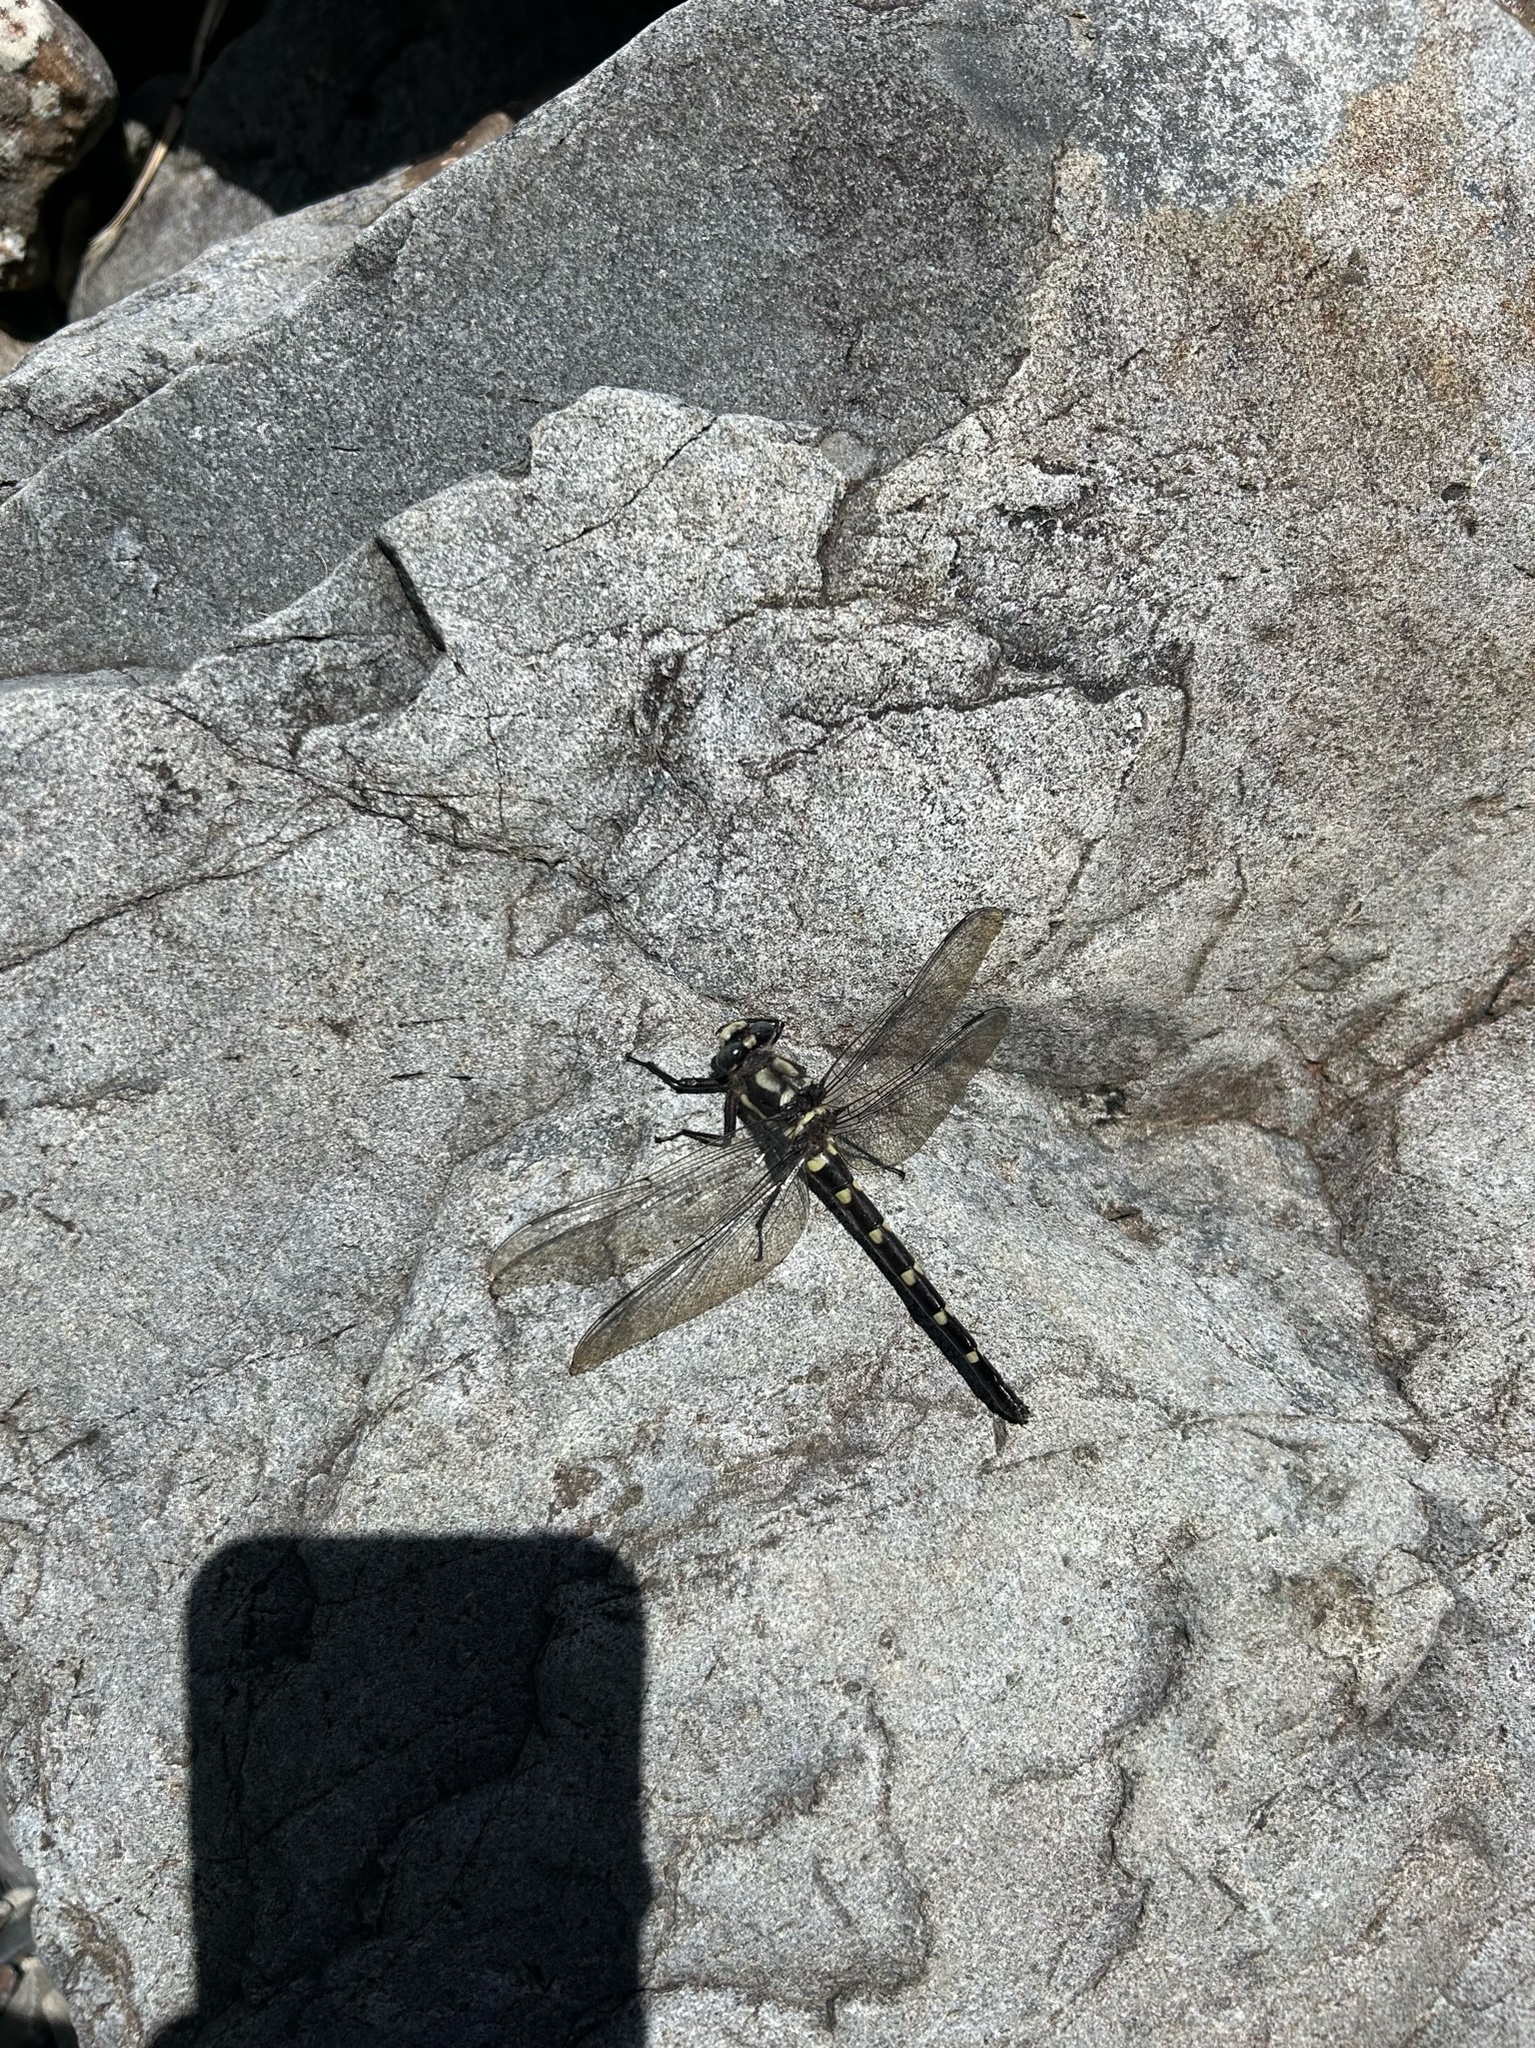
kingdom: Animalia
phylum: Arthropoda
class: Insecta
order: Odonata
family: Petaluridae
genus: Uropetala
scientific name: Uropetala chiltoni
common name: Mountain giant dragonfly
